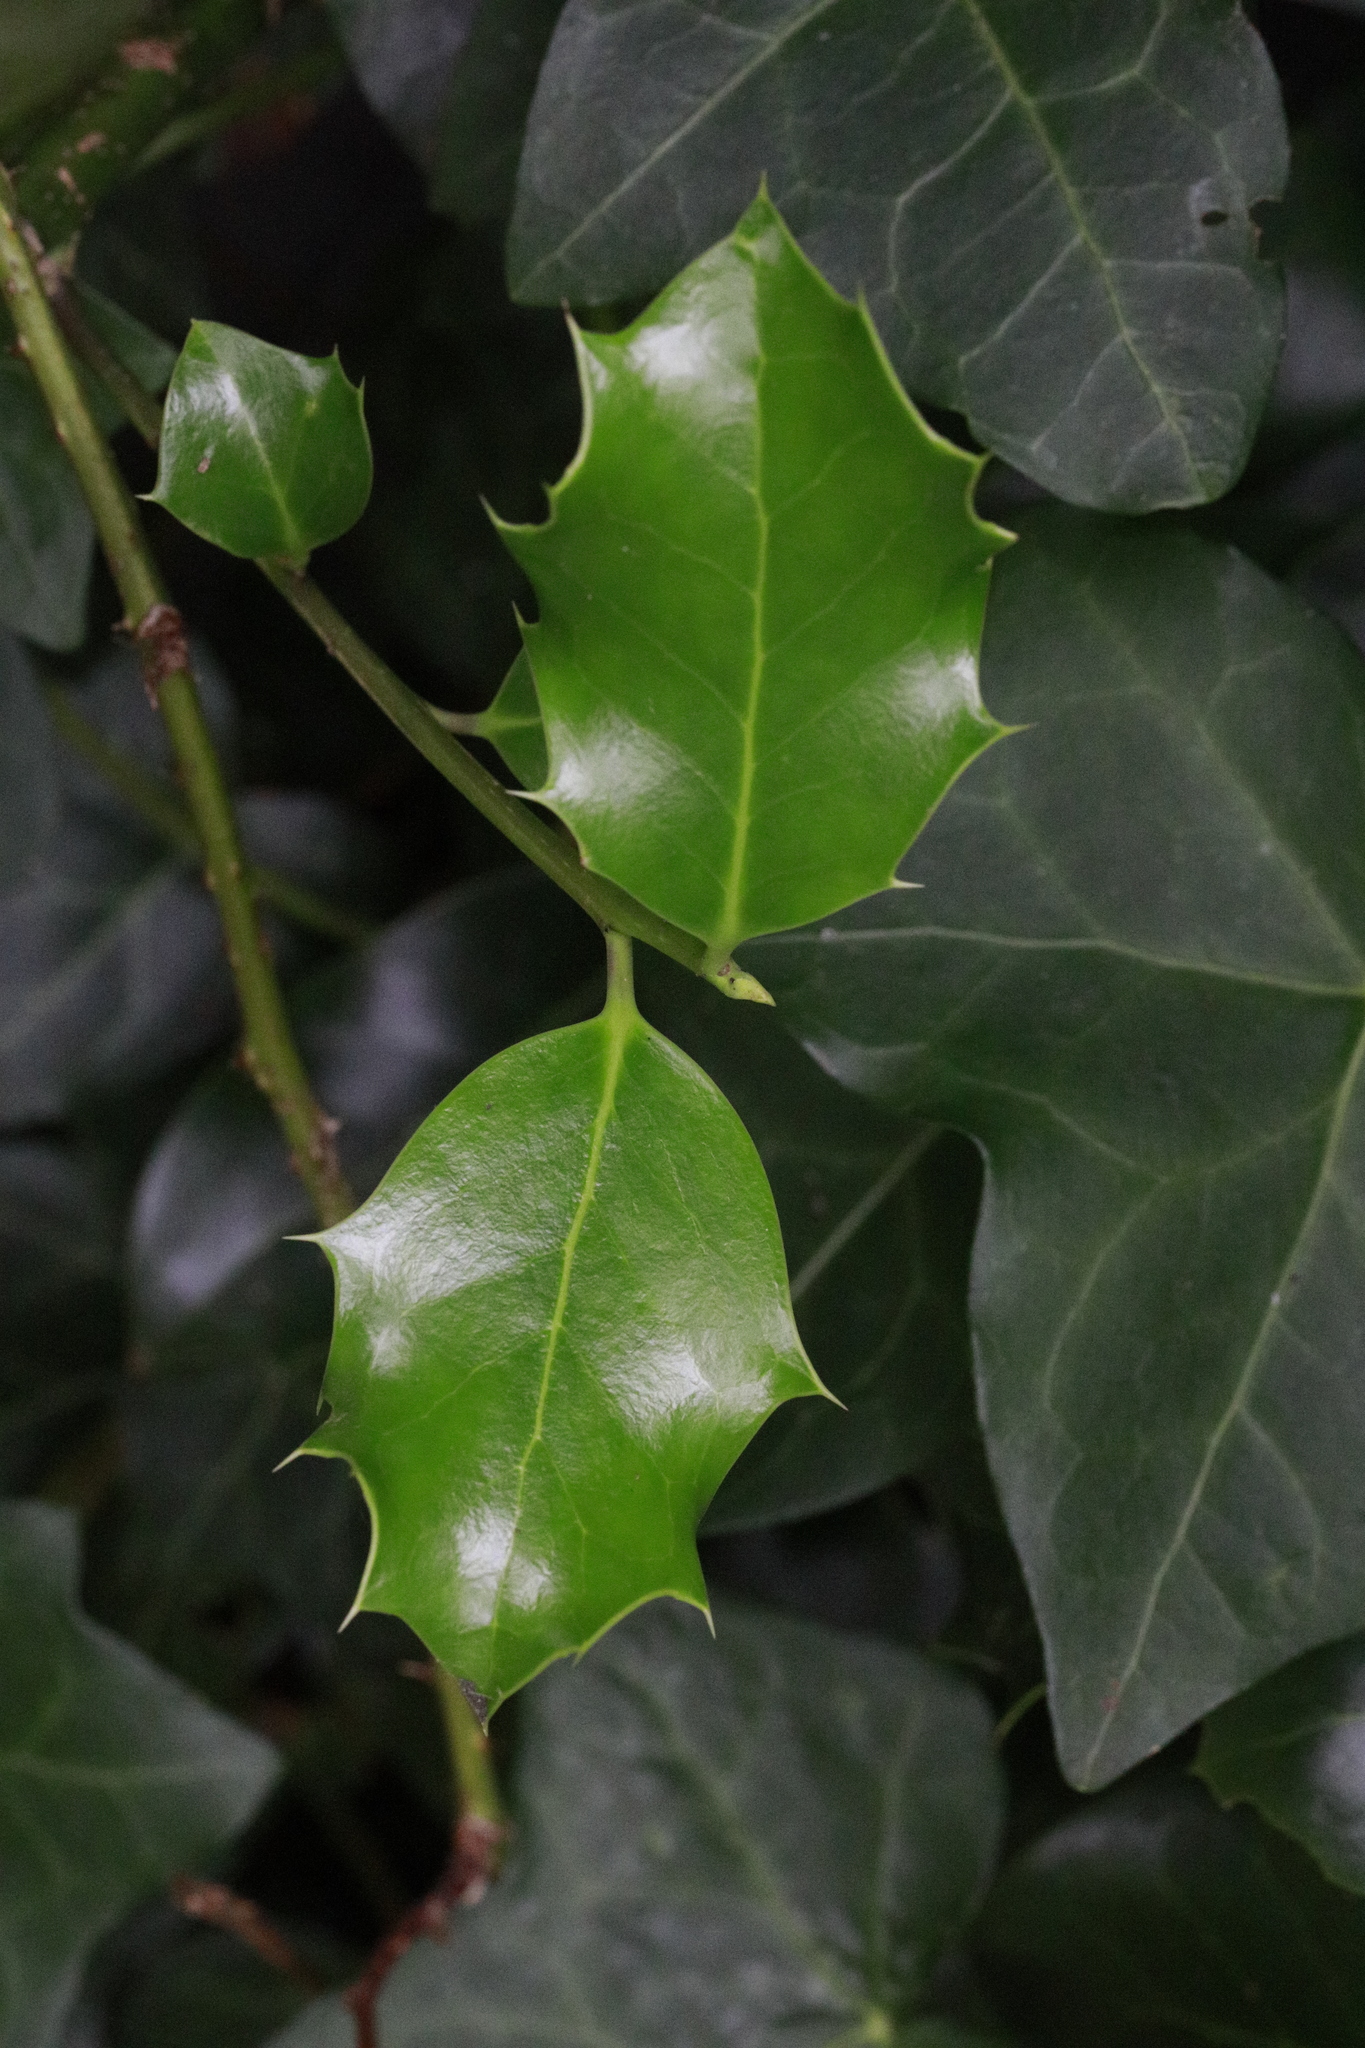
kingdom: Plantae
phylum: Tracheophyta
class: Magnoliopsida
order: Aquifoliales
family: Aquifoliaceae
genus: Ilex
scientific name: Ilex aquifolium
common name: English holly
